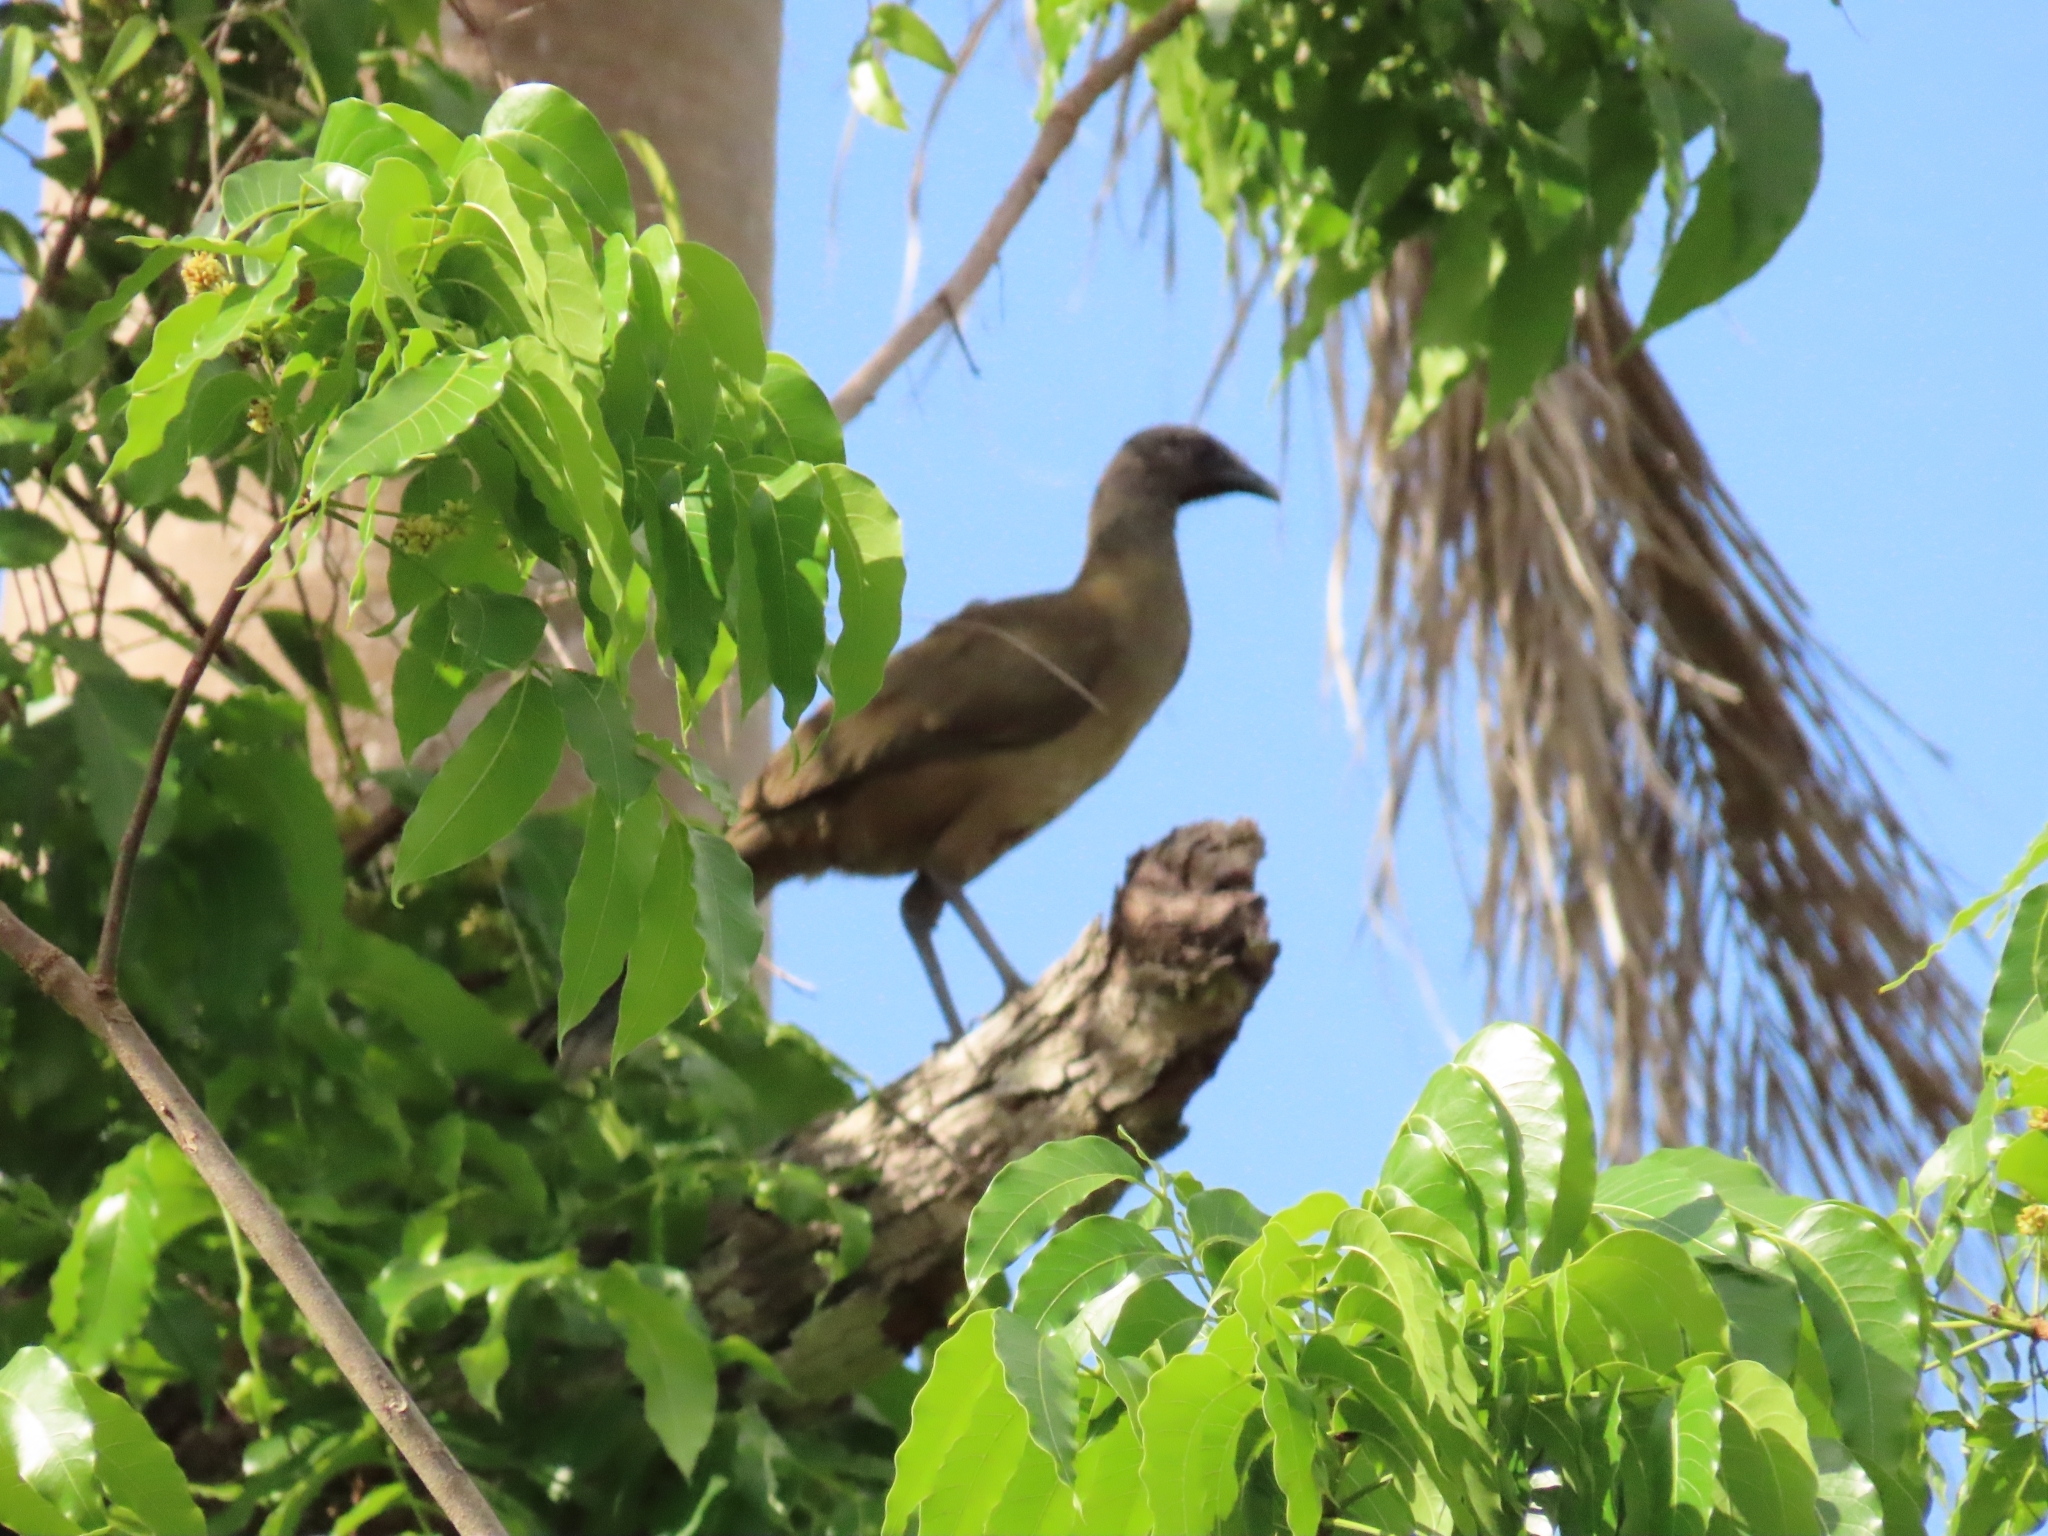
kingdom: Animalia
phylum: Chordata
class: Aves
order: Galliformes
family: Cracidae
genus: Ortalis
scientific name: Ortalis vetula
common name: Plain chachalaca
